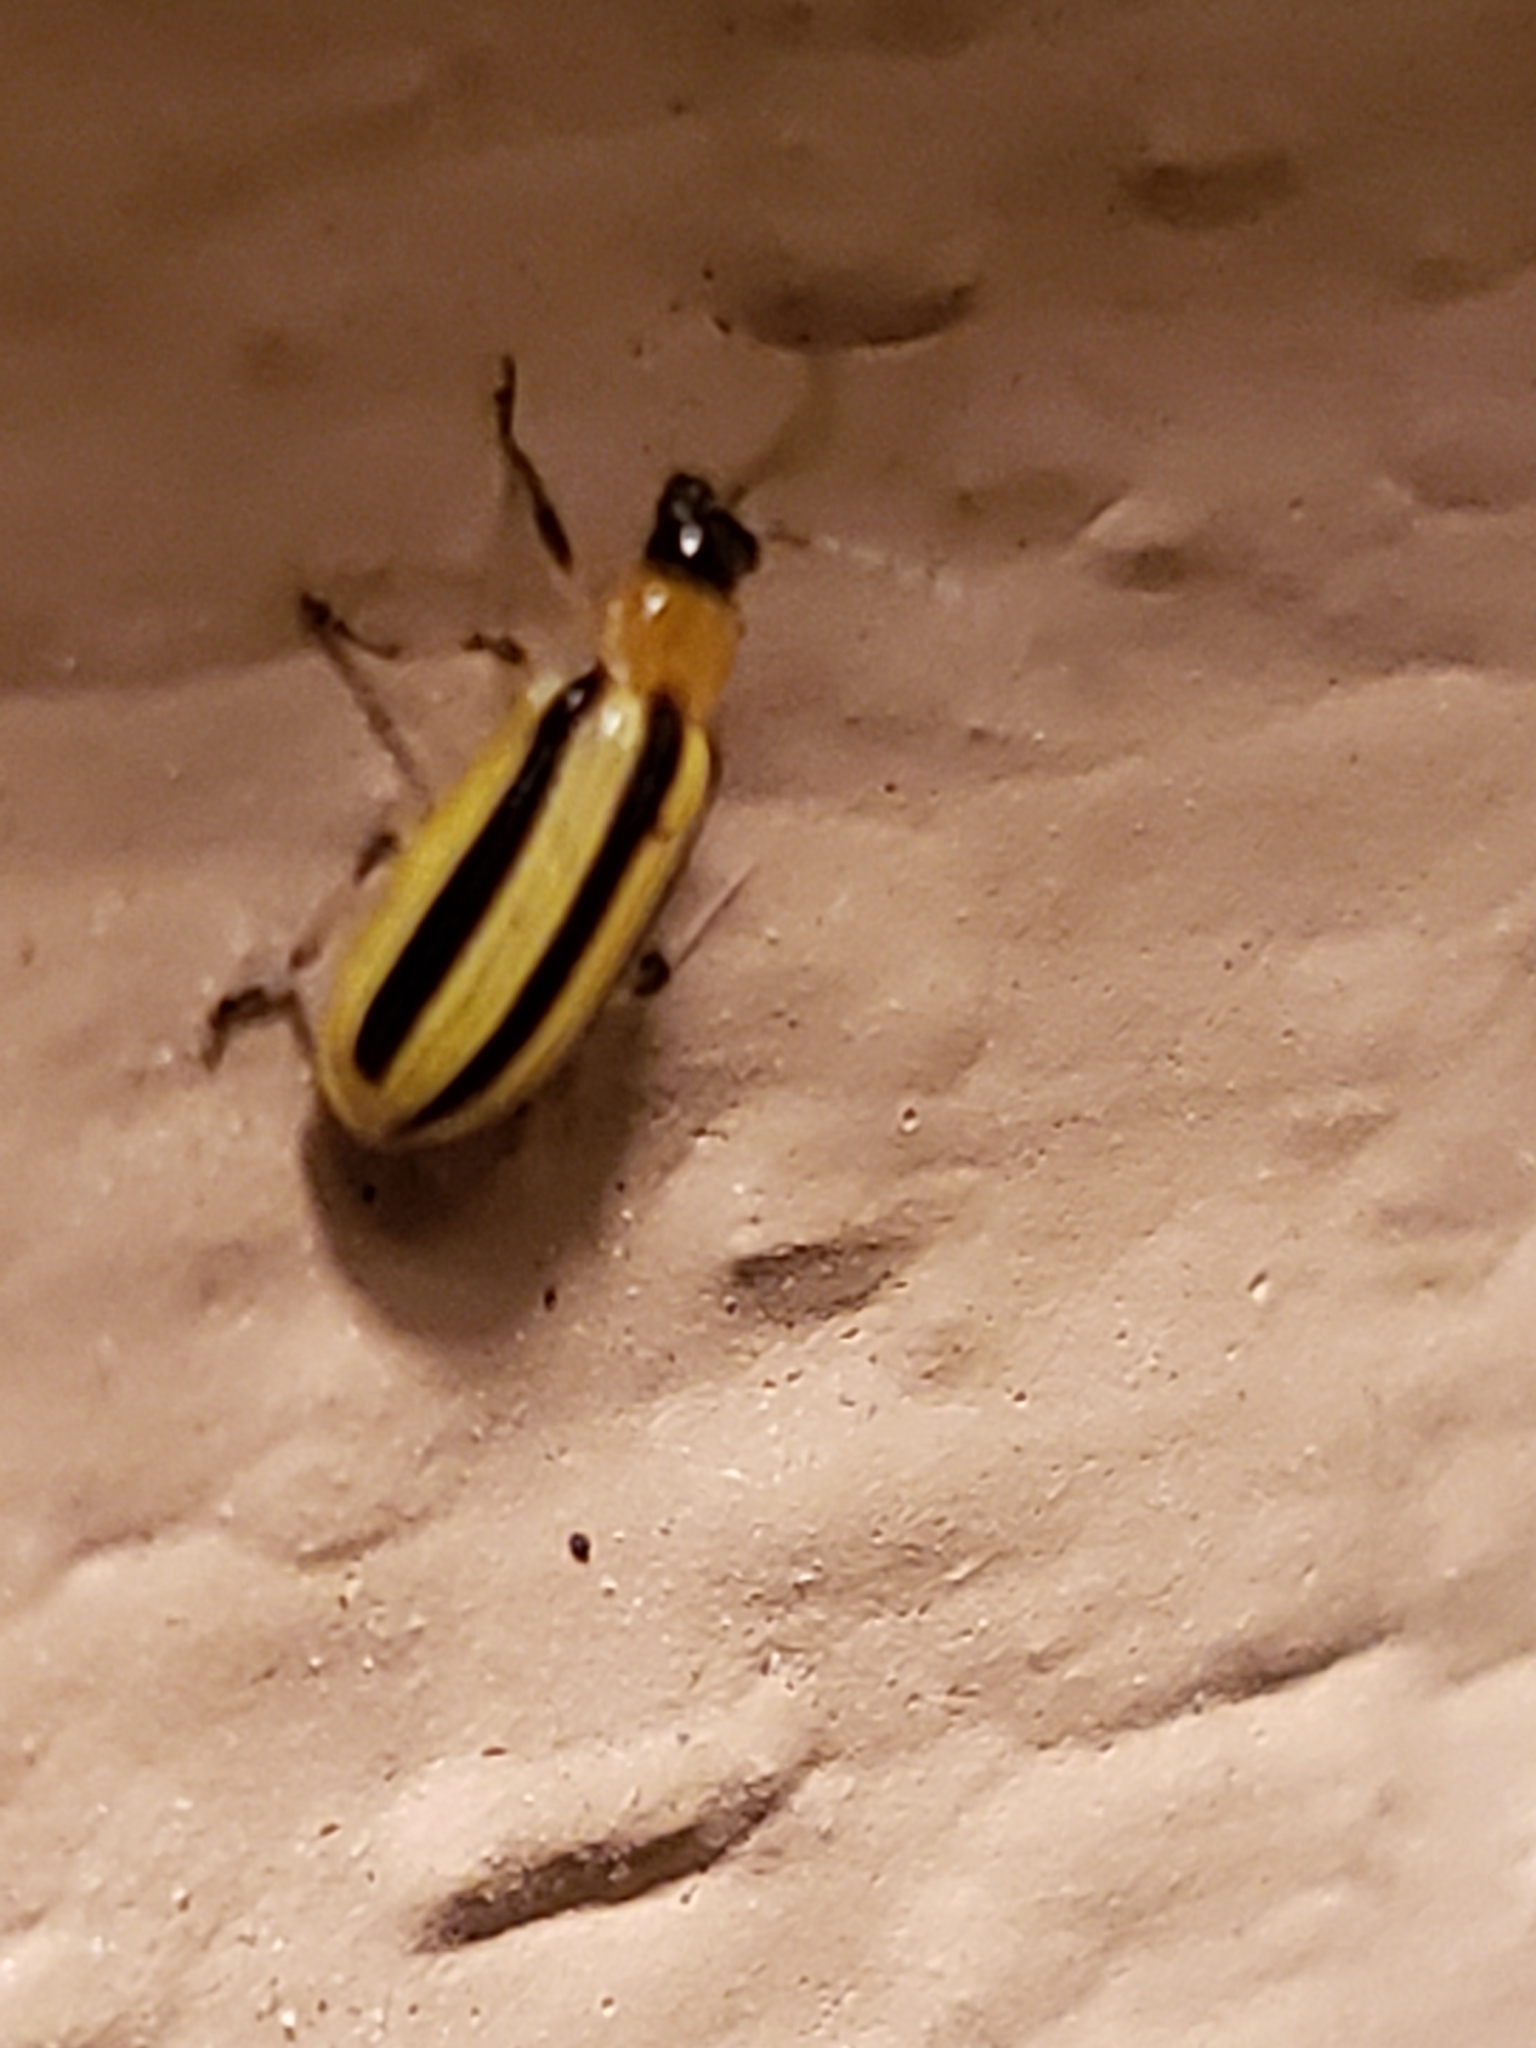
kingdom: Animalia
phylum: Arthropoda
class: Insecta
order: Coleoptera
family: Chrysomelidae
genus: Acalymma
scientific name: Acalymma vittatum
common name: Striped cucumber beetle
